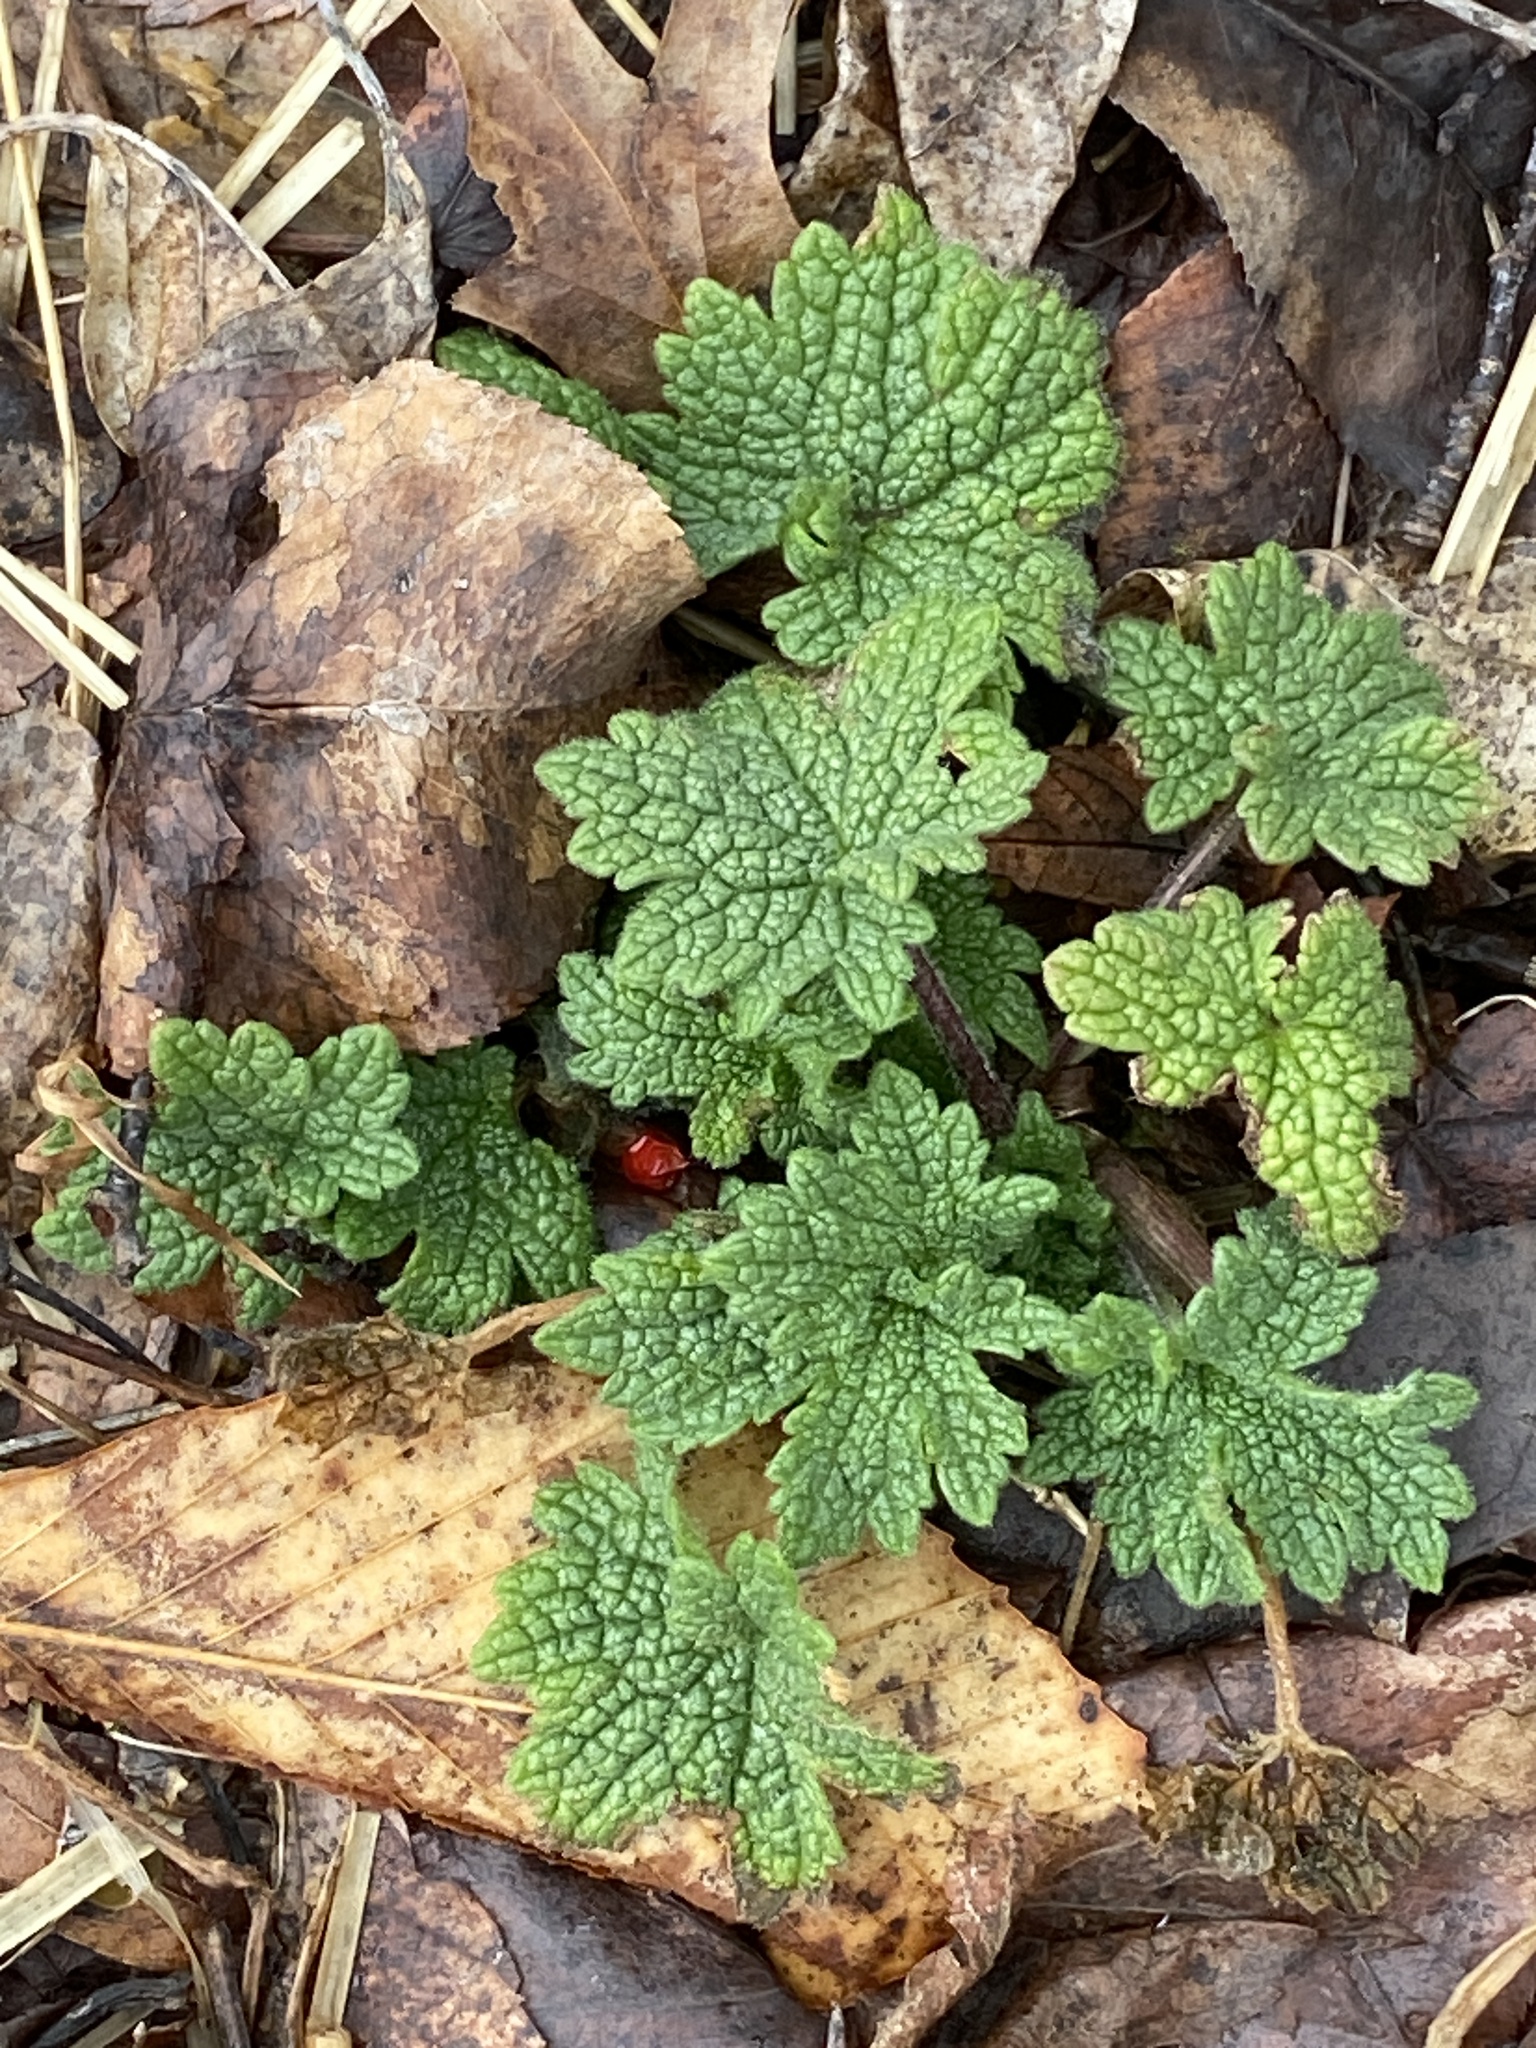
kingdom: Plantae
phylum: Tracheophyta
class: Magnoliopsida
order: Lamiales
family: Lamiaceae
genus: Leonurus
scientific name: Leonurus cardiaca
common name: Motherwort
